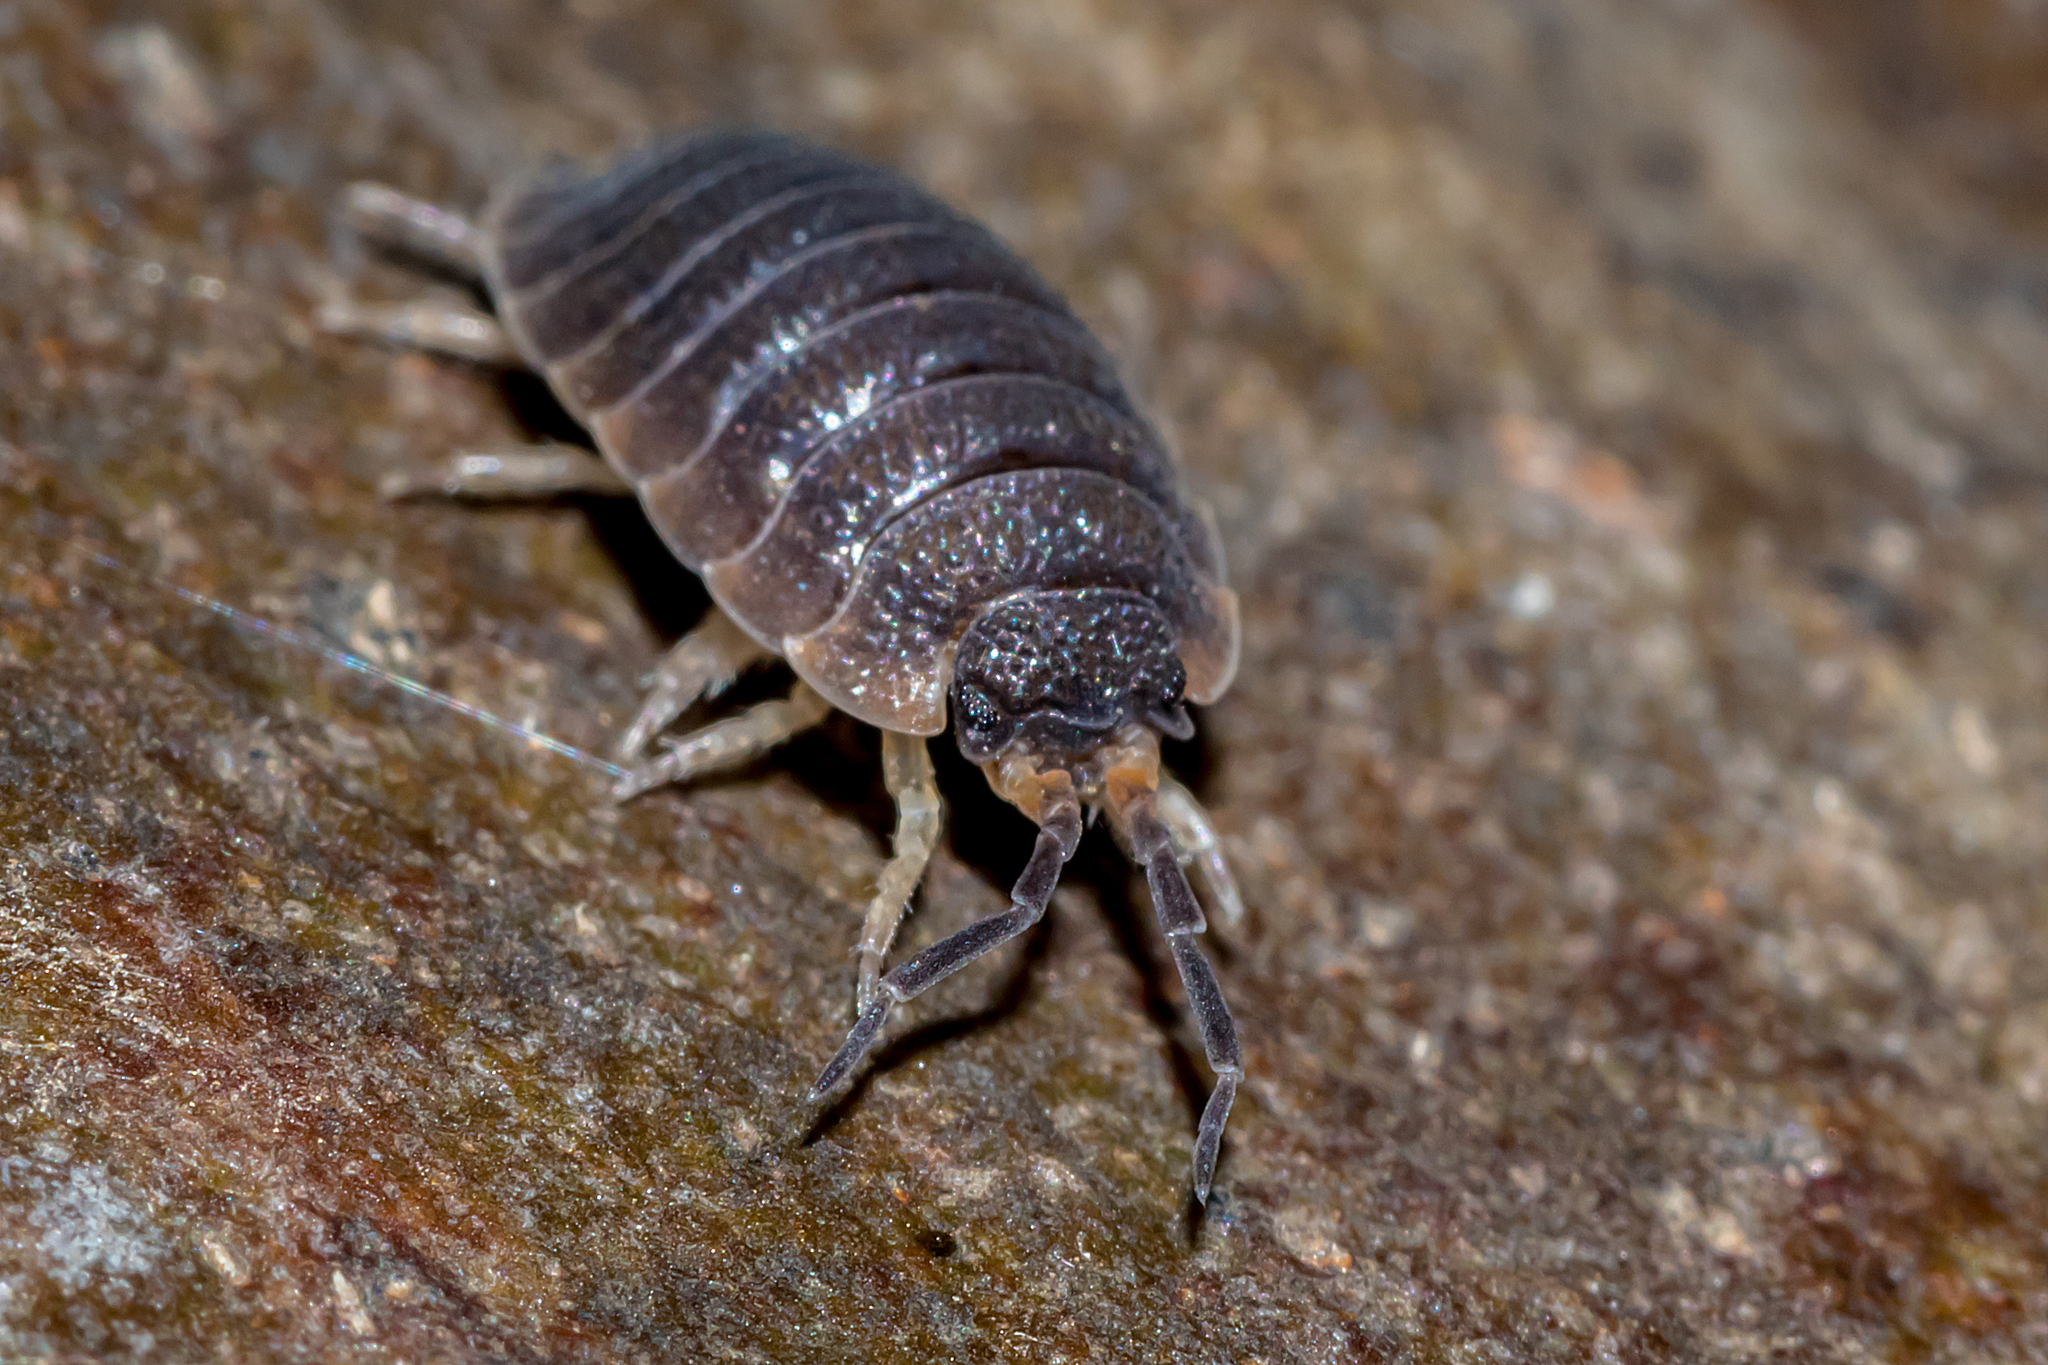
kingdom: Animalia
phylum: Arthropoda
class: Malacostraca
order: Isopoda
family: Porcellionidae
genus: Porcellio
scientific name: Porcellio scaber
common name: Common rough woodlouse
